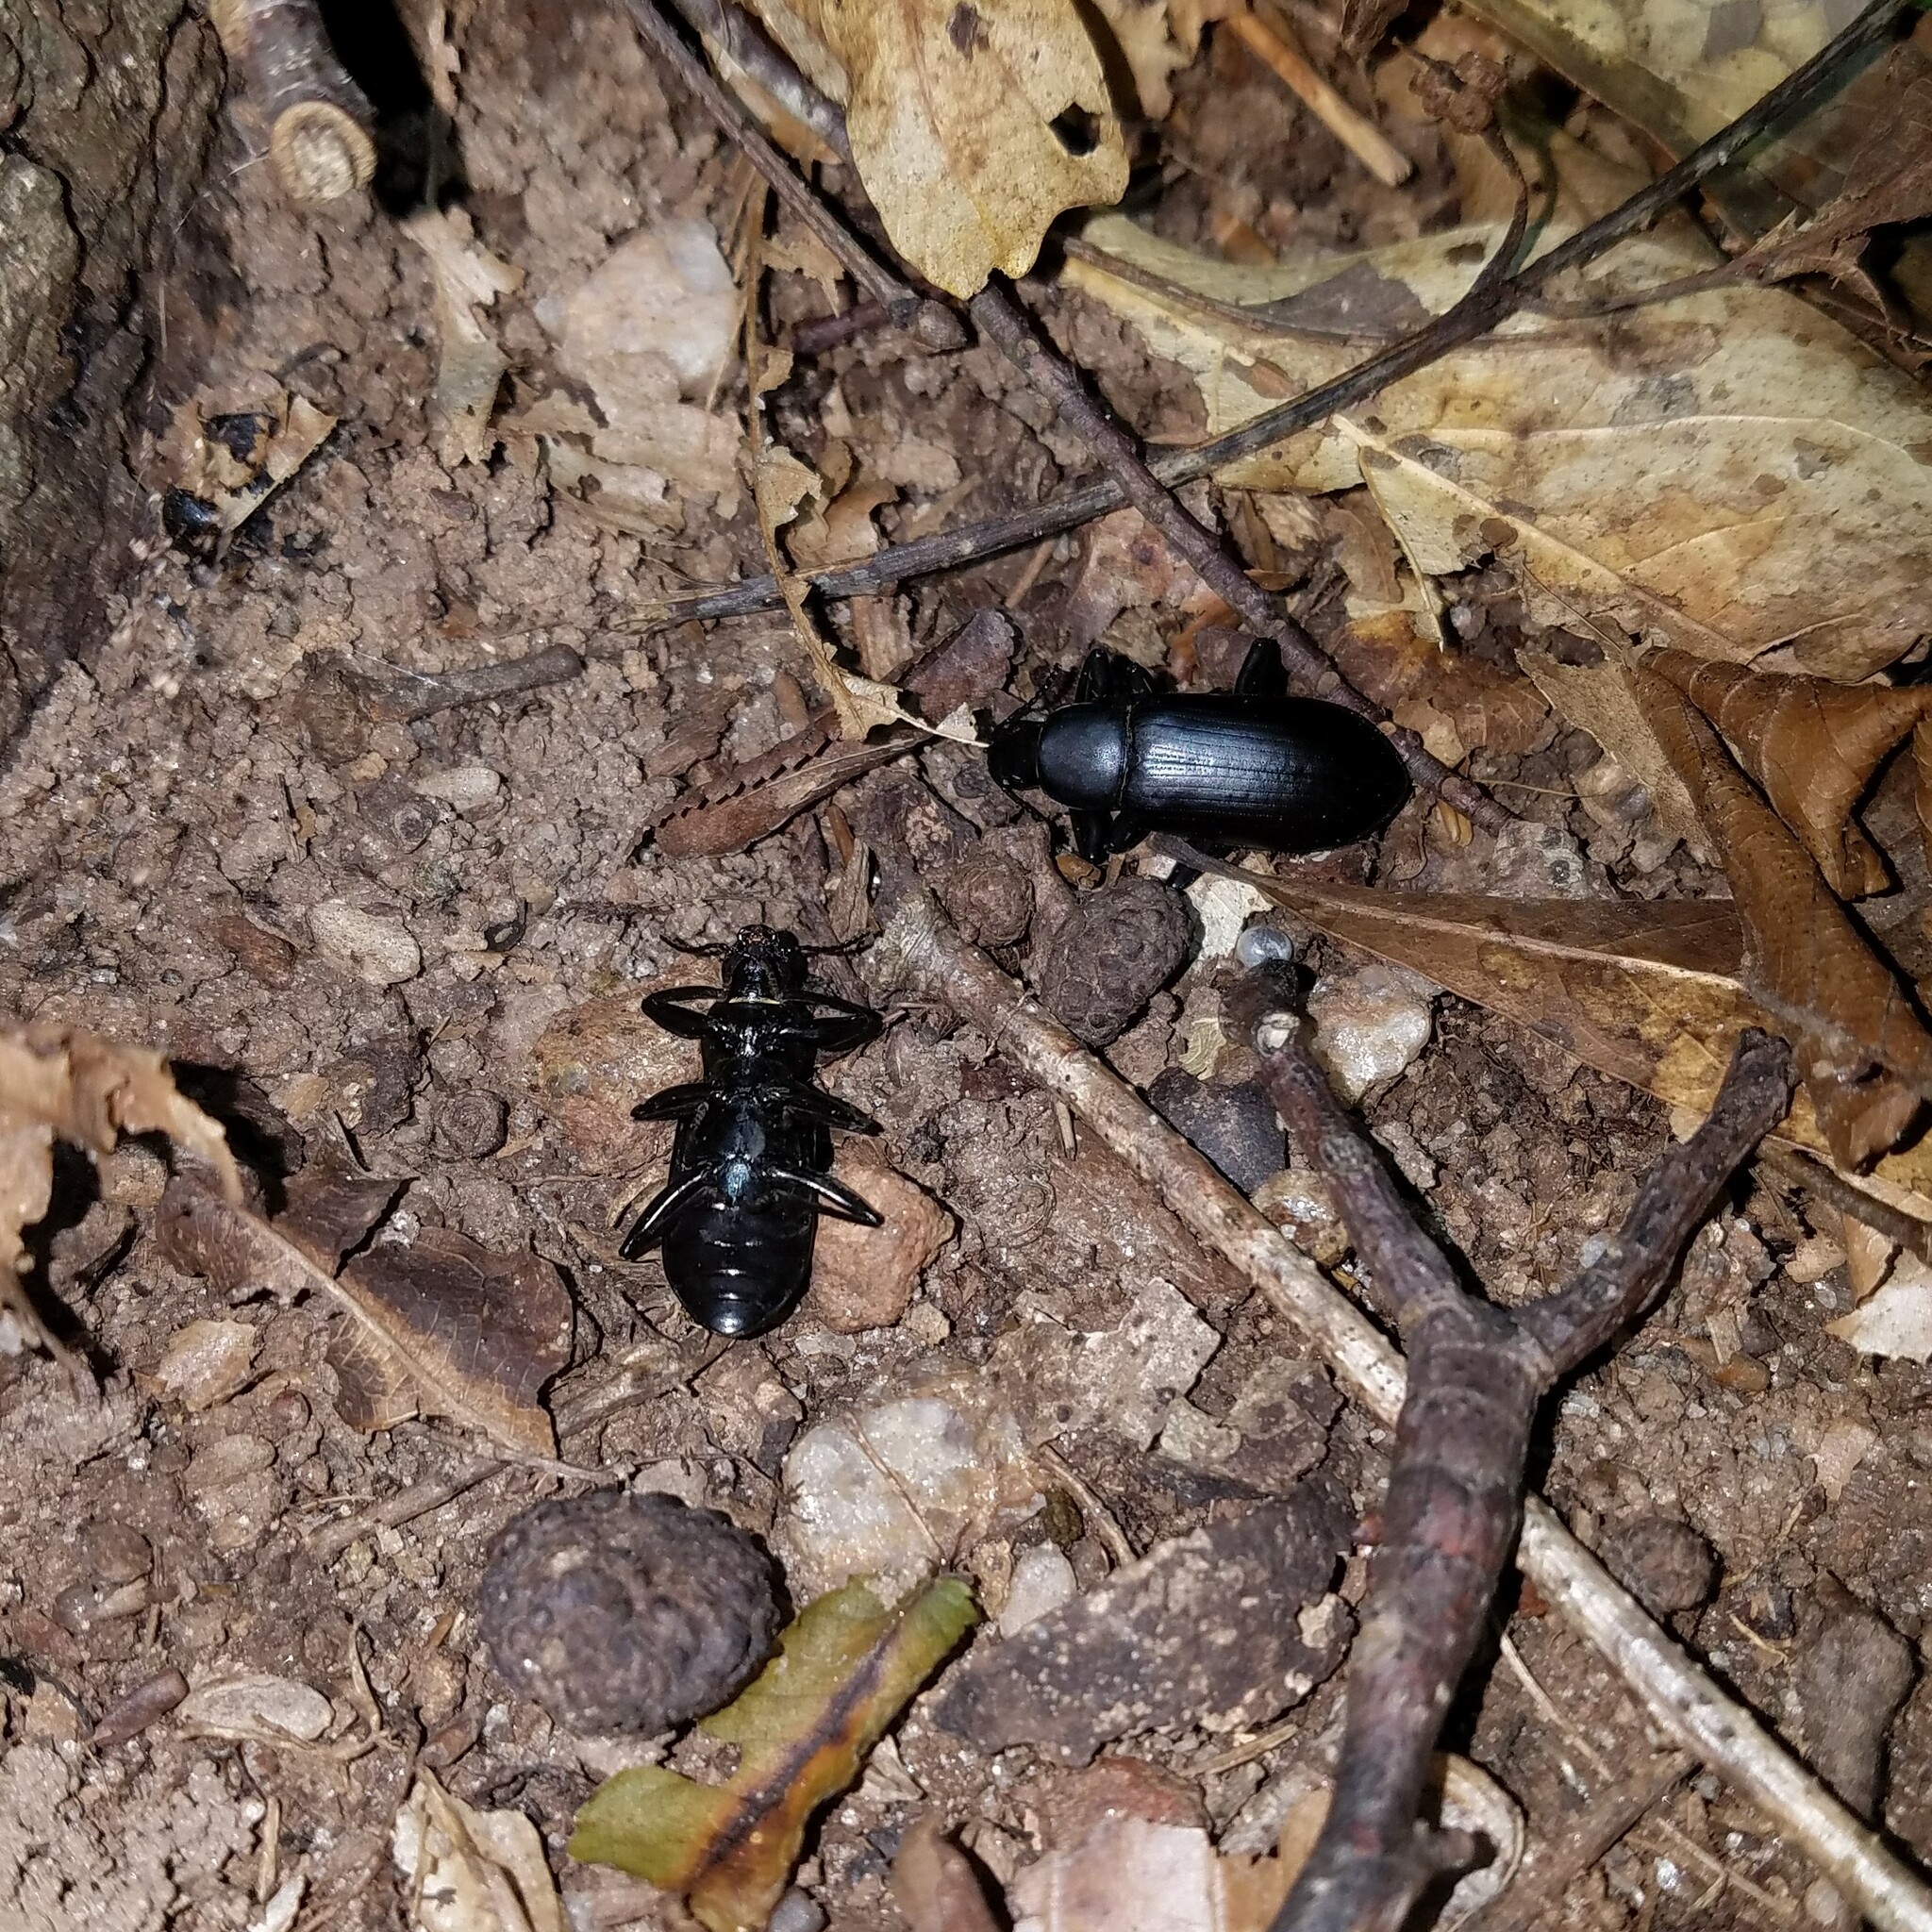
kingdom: Animalia
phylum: Arthropoda
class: Insecta
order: Coleoptera
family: Tenebrionidae
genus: Alobates
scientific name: Alobates pensylvanicus
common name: False mealworm beetle
